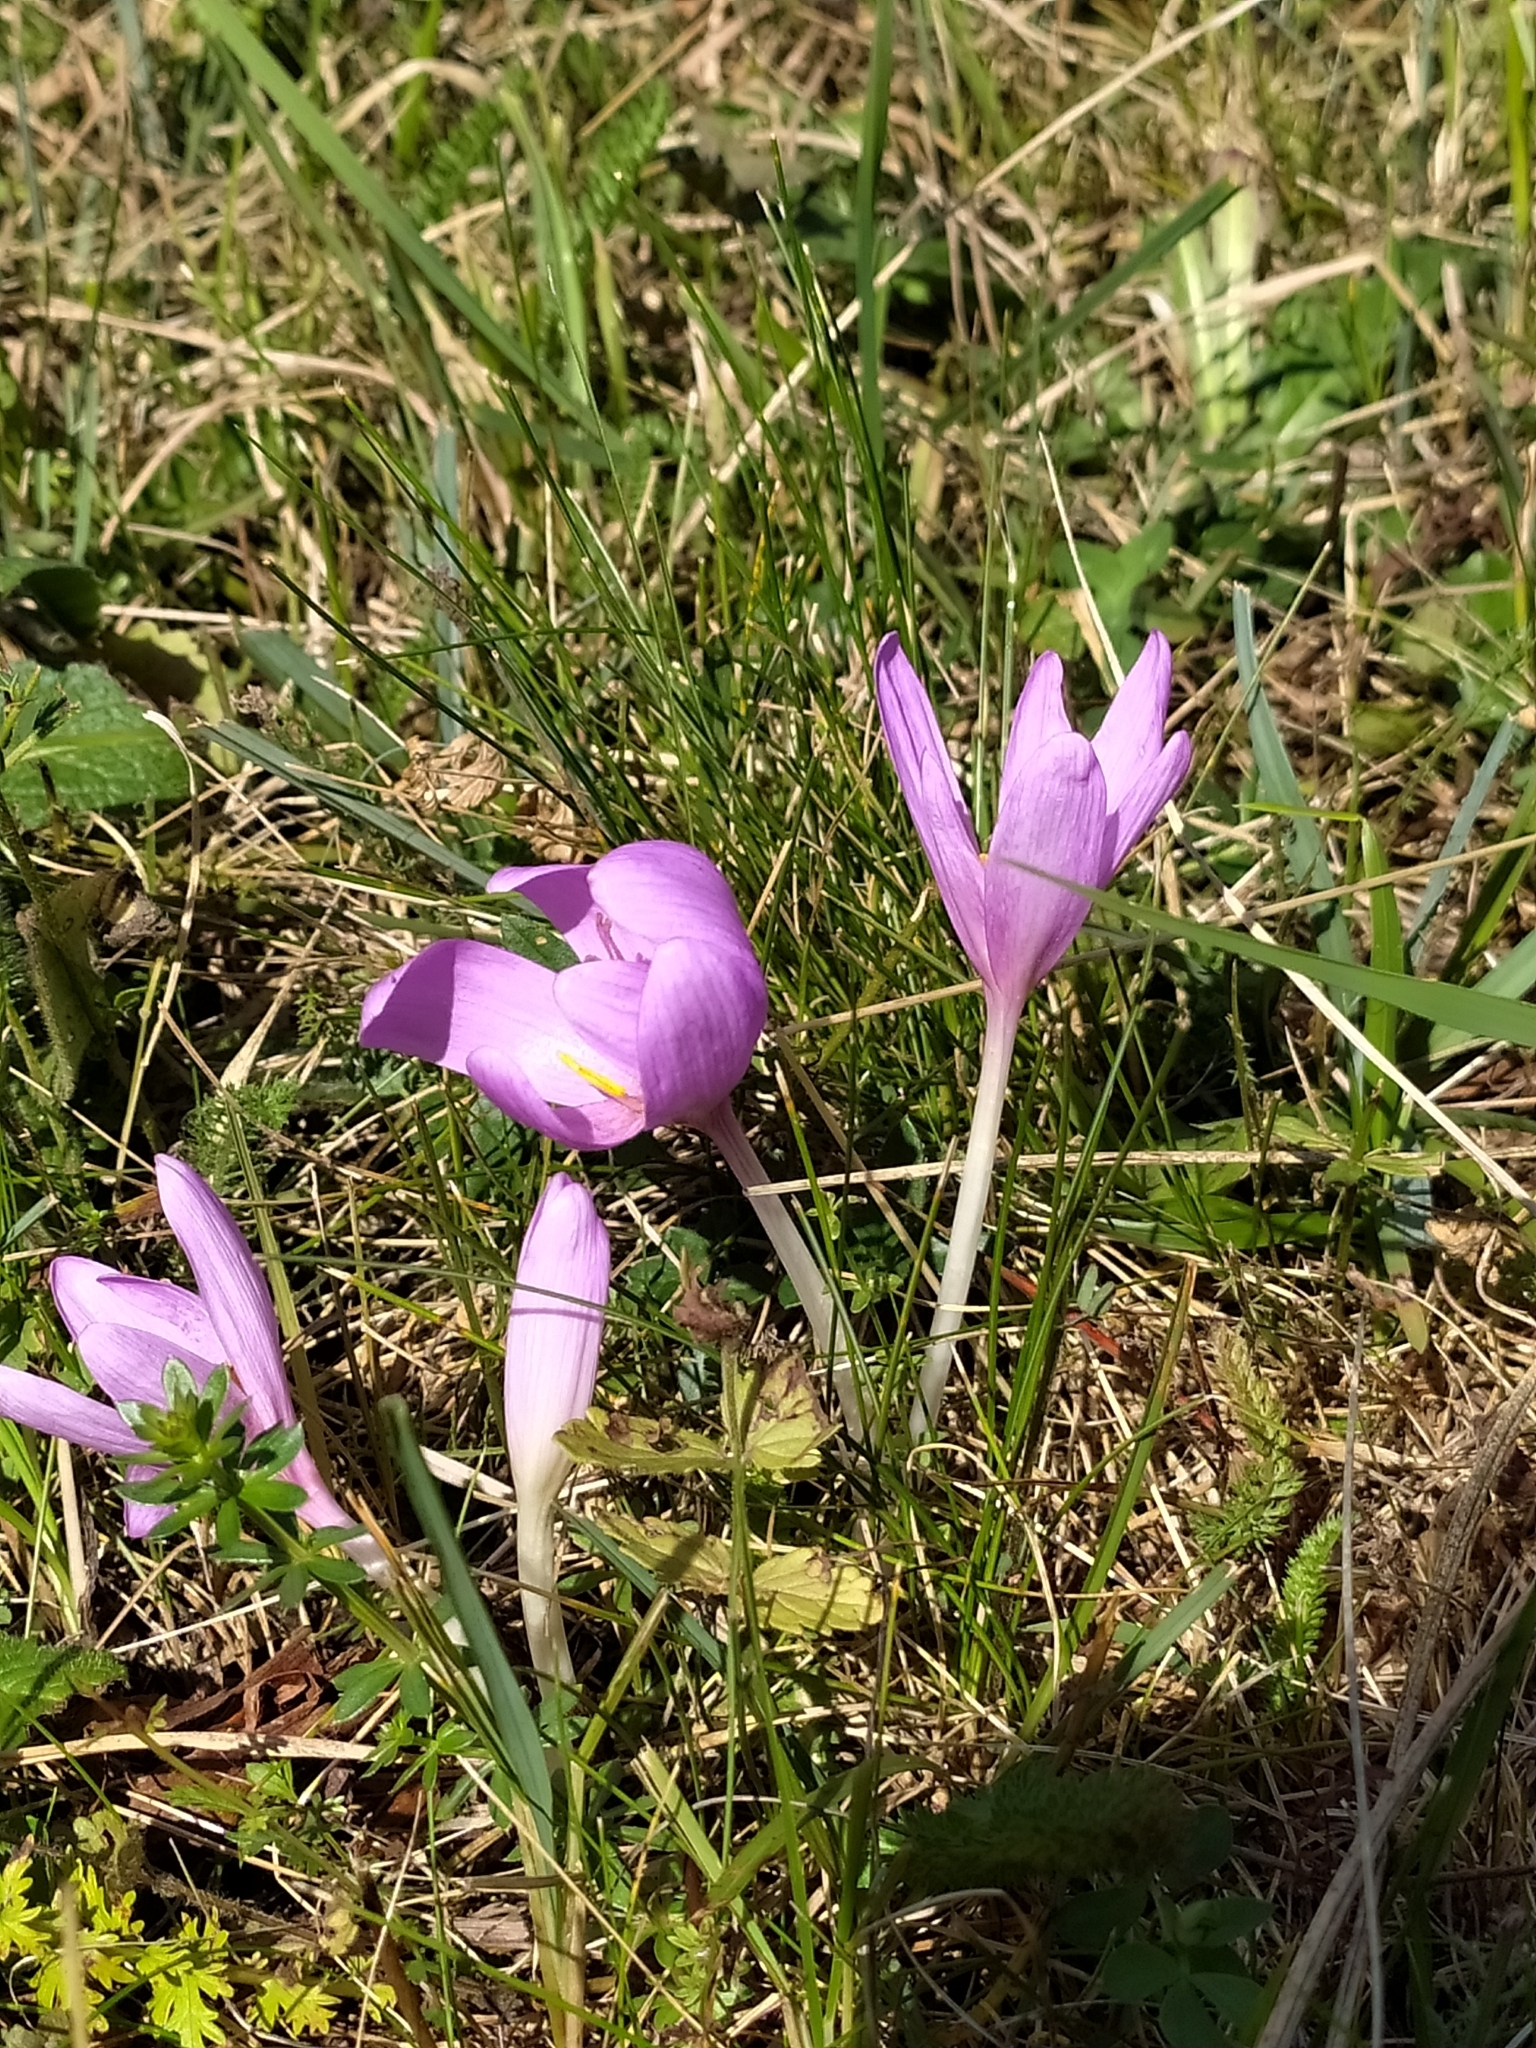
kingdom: Plantae
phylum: Tracheophyta
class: Liliopsida
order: Liliales
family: Colchicaceae
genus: Colchicum
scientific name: Colchicum autumnale
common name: Autumn crocus
